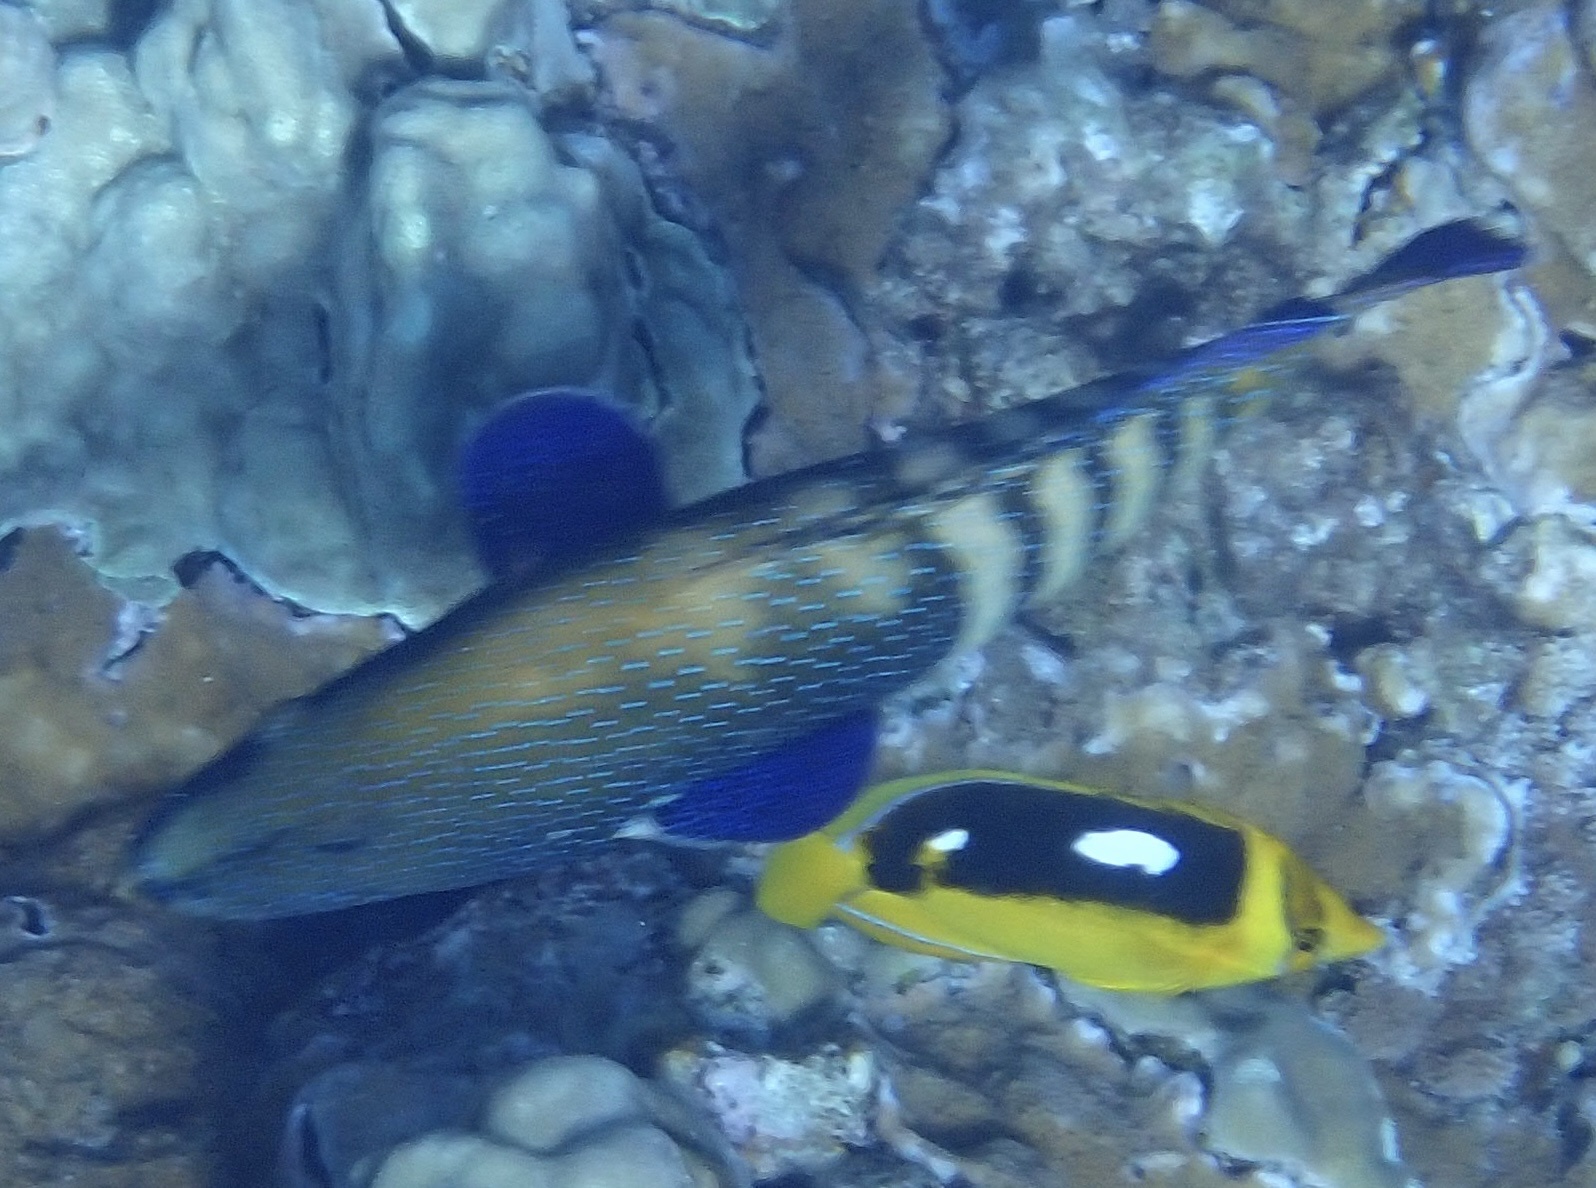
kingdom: Animalia
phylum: Chordata
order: Perciformes
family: Serranidae
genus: Cephalopholis
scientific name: Cephalopholis argus
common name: Peacock grouper
